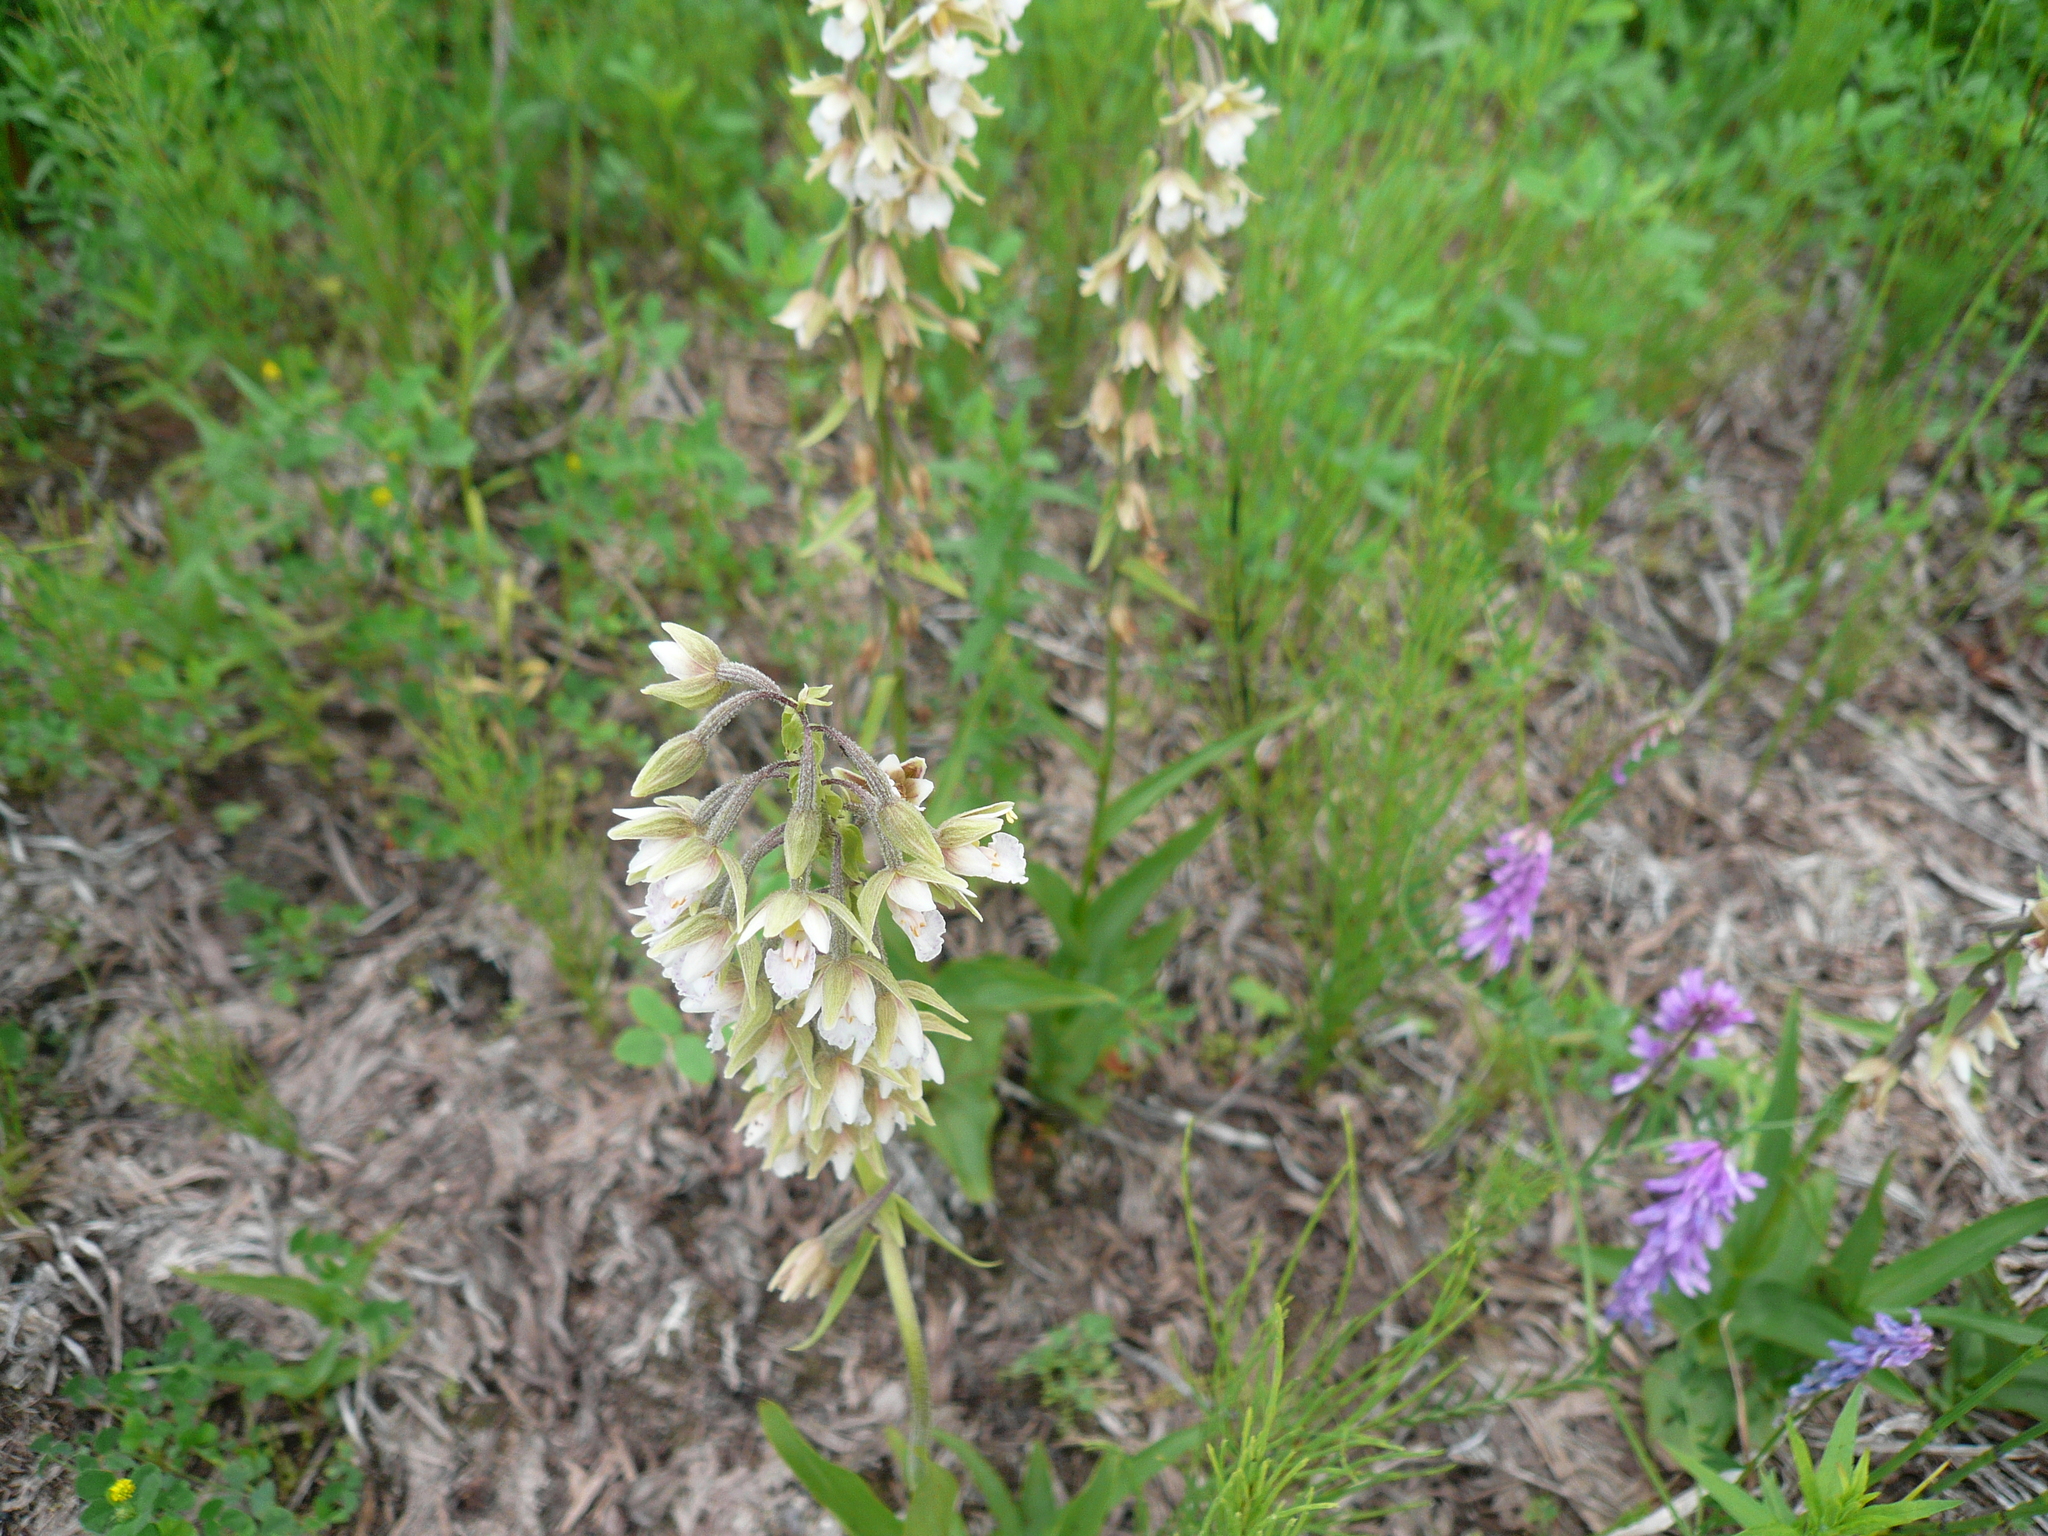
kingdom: Plantae
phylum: Tracheophyta
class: Liliopsida
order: Asparagales
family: Orchidaceae
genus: Epipactis
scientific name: Epipactis palustris
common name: Marsh helleborine
